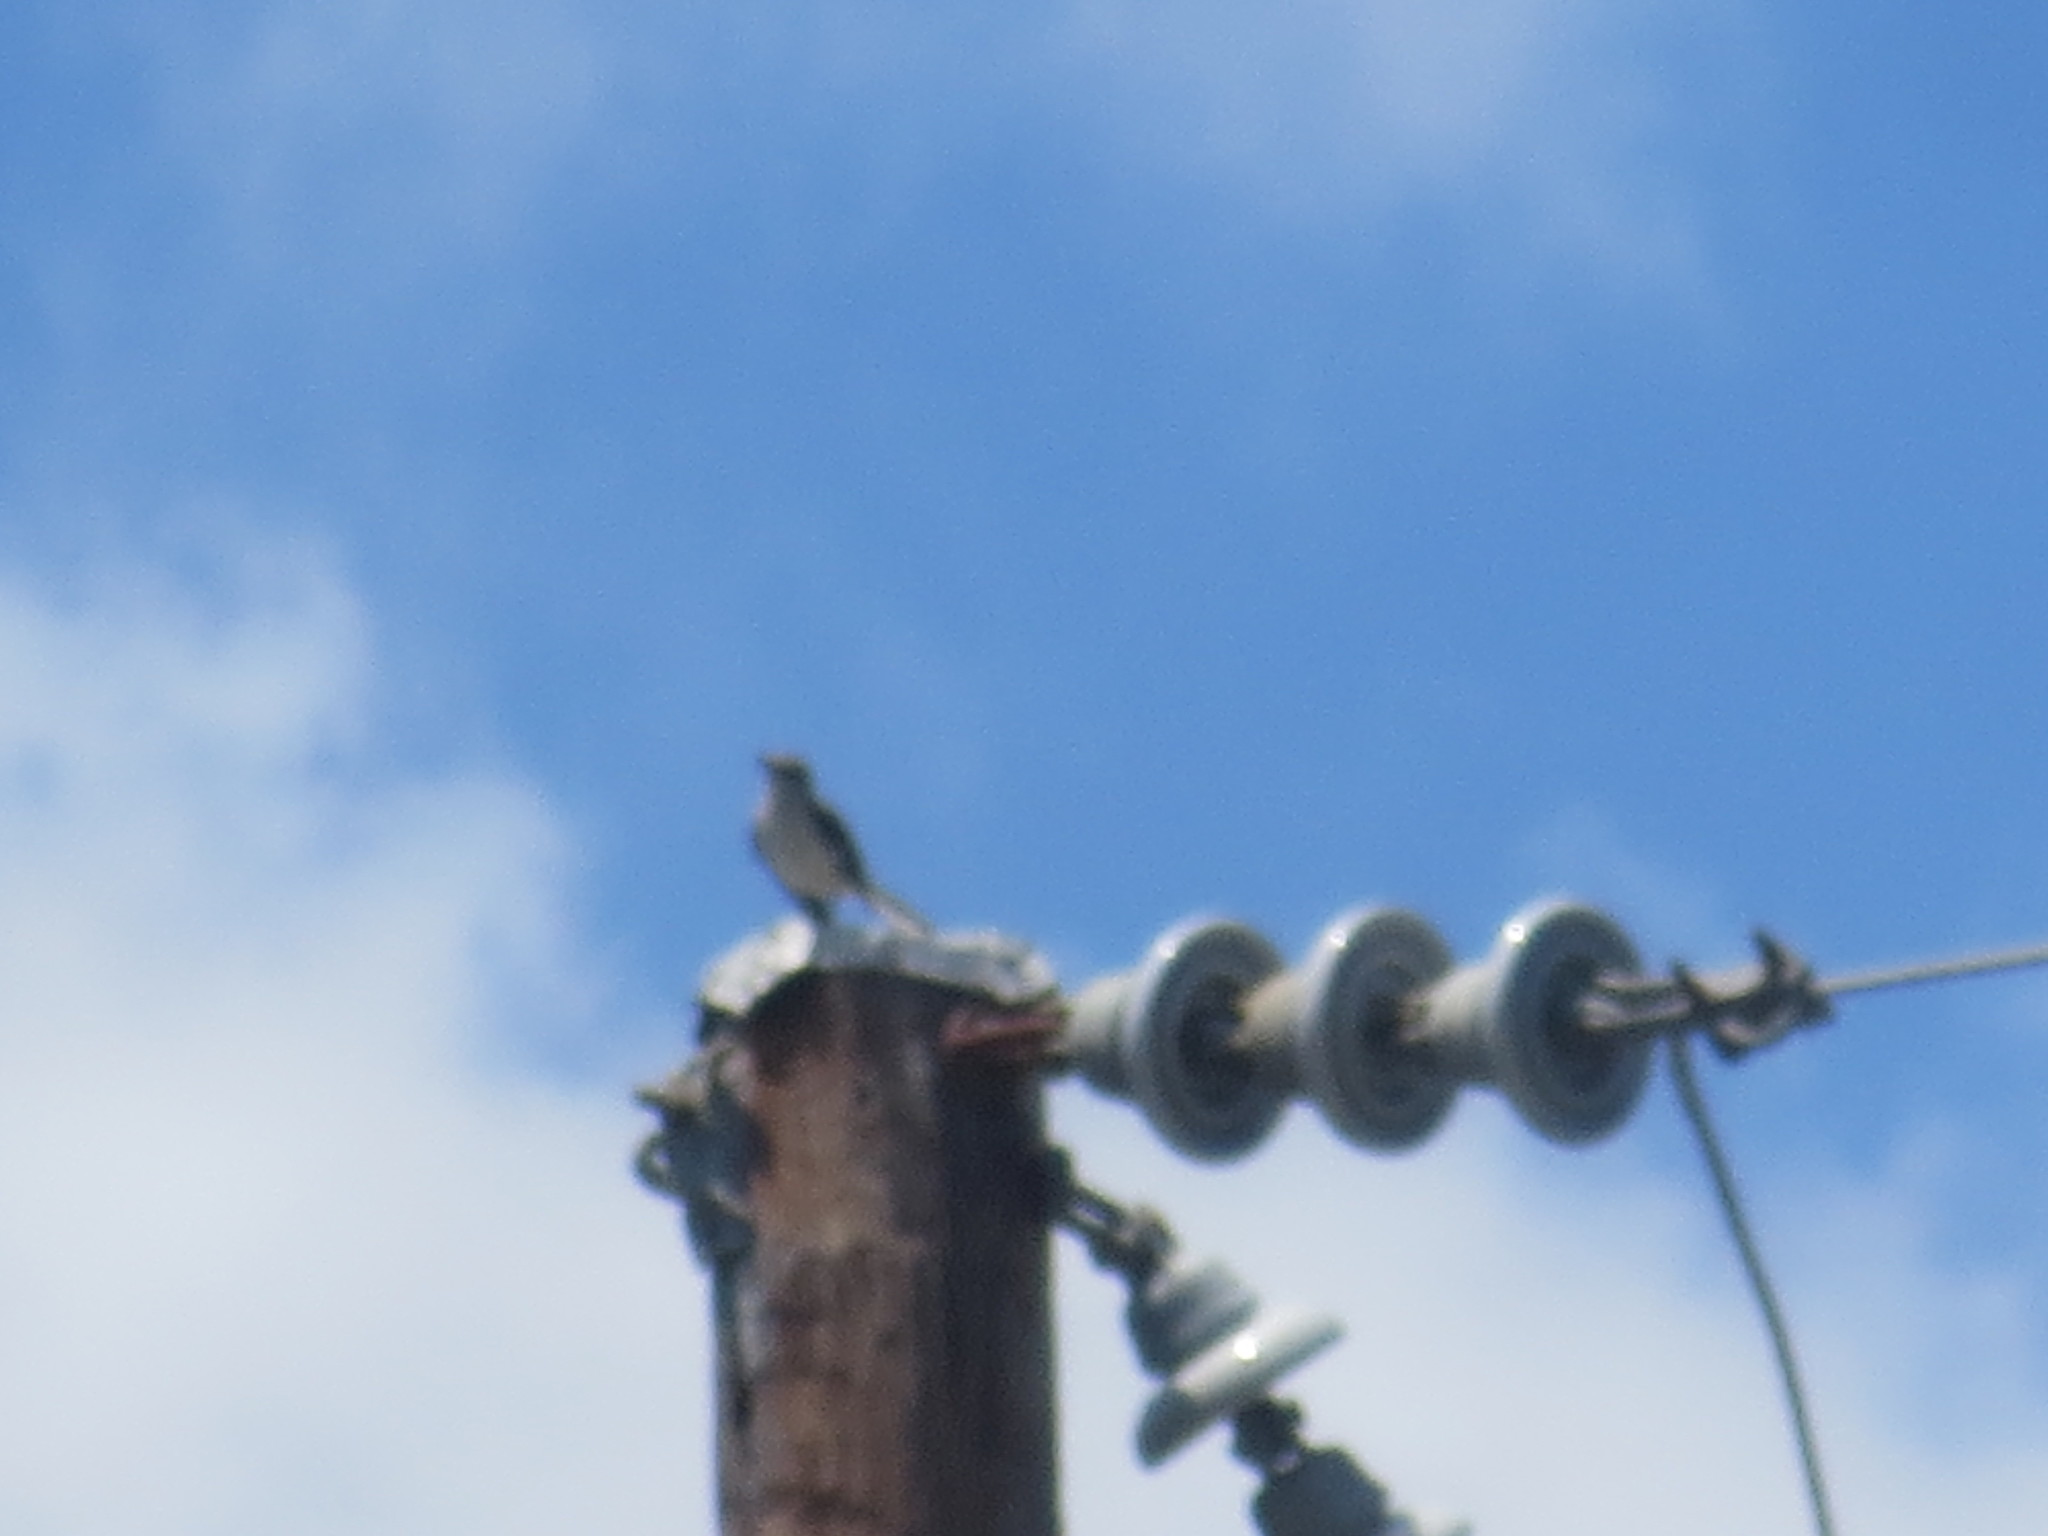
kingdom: Animalia
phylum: Chordata
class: Aves
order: Passeriformes
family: Mimidae
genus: Mimus
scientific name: Mimus polyglottos
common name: Northern mockingbird
